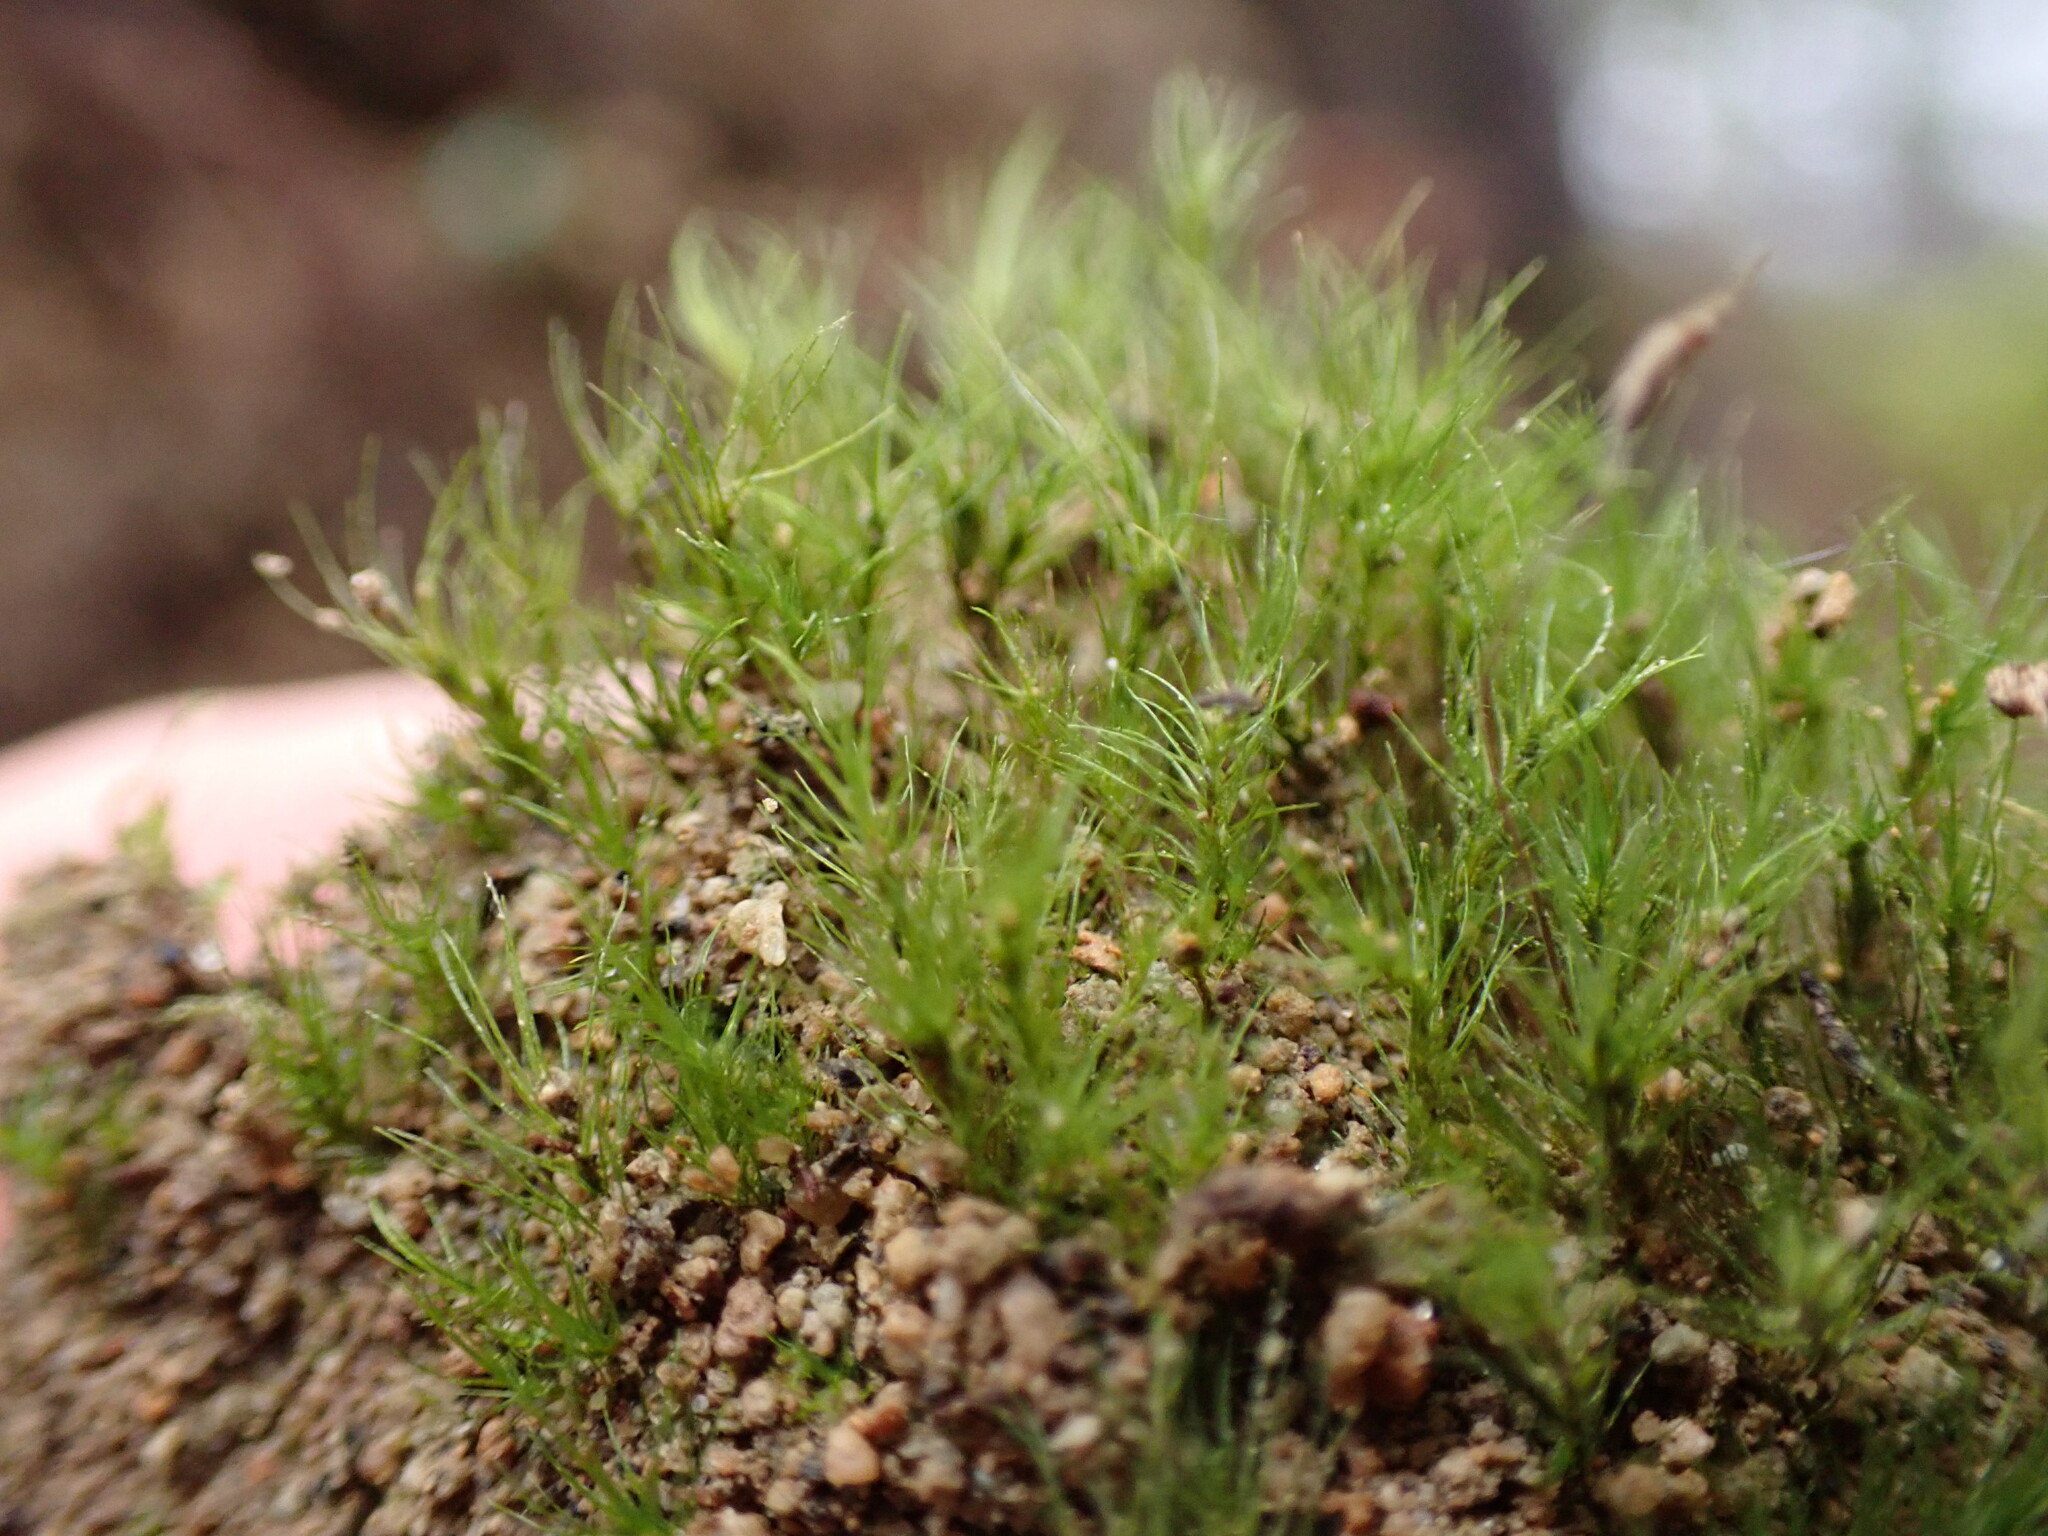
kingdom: Plantae
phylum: Bryophyta
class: Bryopsida
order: Dicranales
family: Dicranellaceae
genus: Dicranella
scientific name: Dicranella heteromalla
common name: Silky forklet moss
